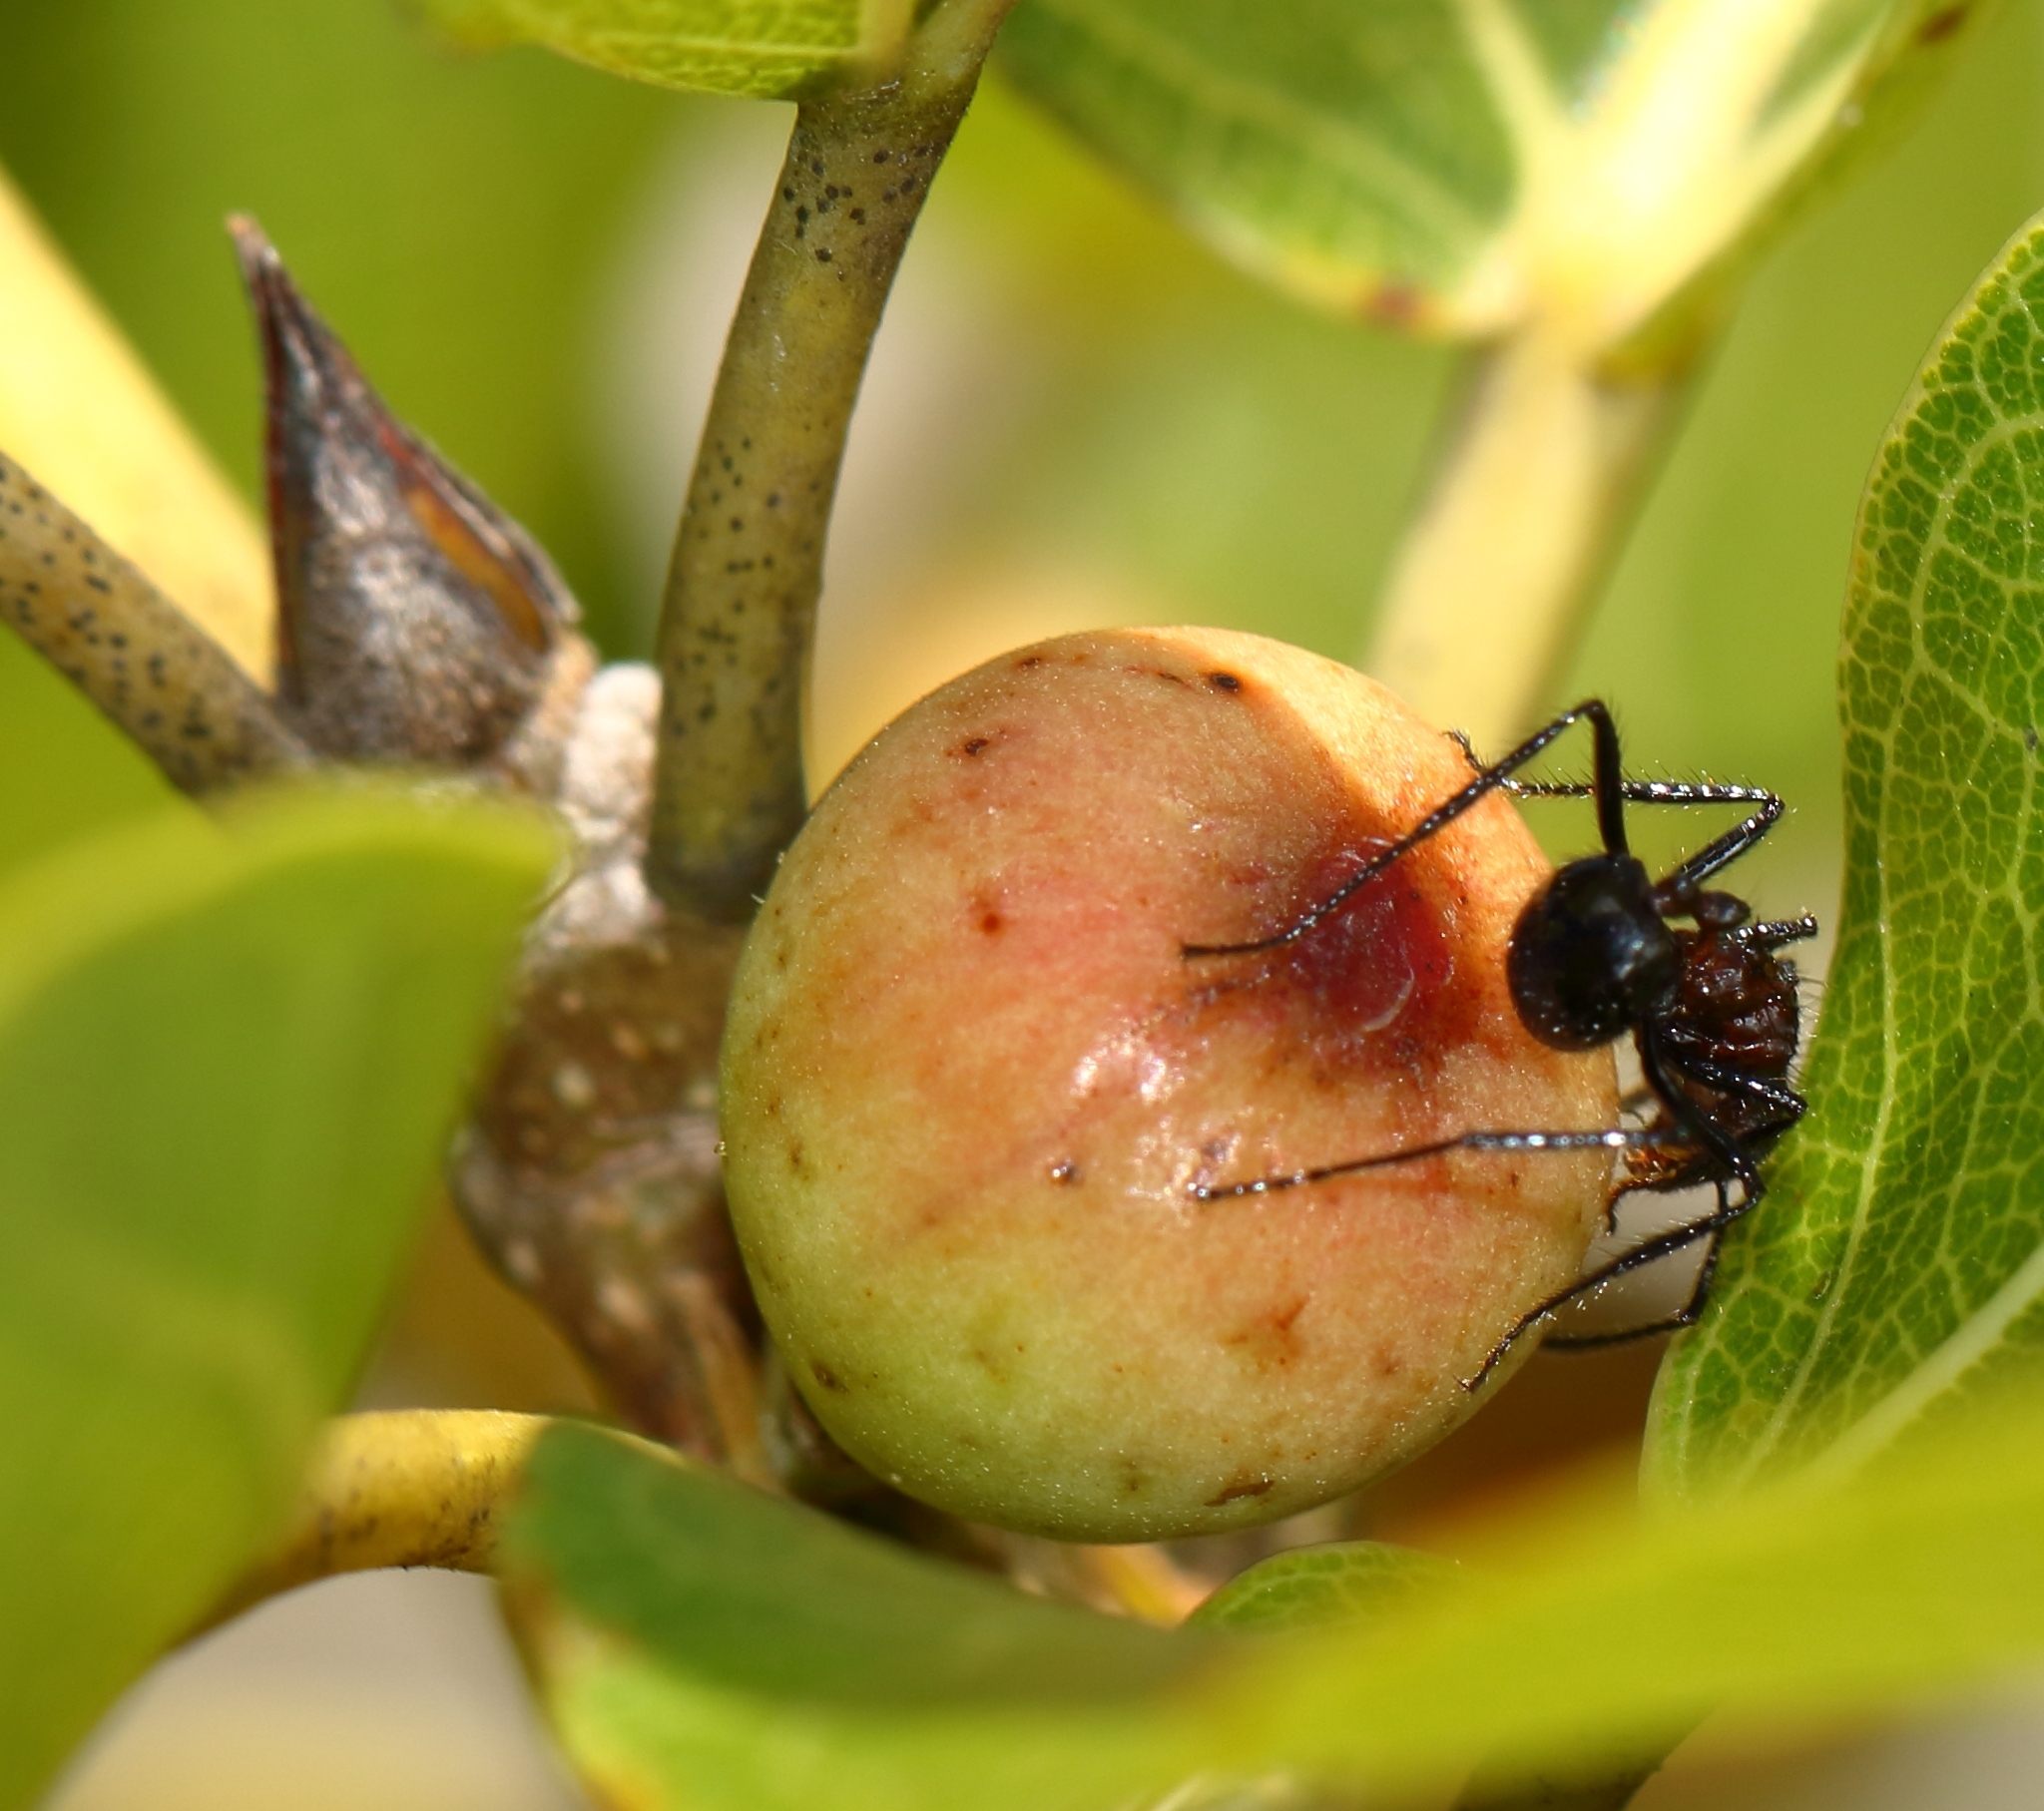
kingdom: Plantae
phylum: Tracheophyta
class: Magnoliopsida
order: Rosales
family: Moraceae
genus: Ficus
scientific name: Ficus ingens
